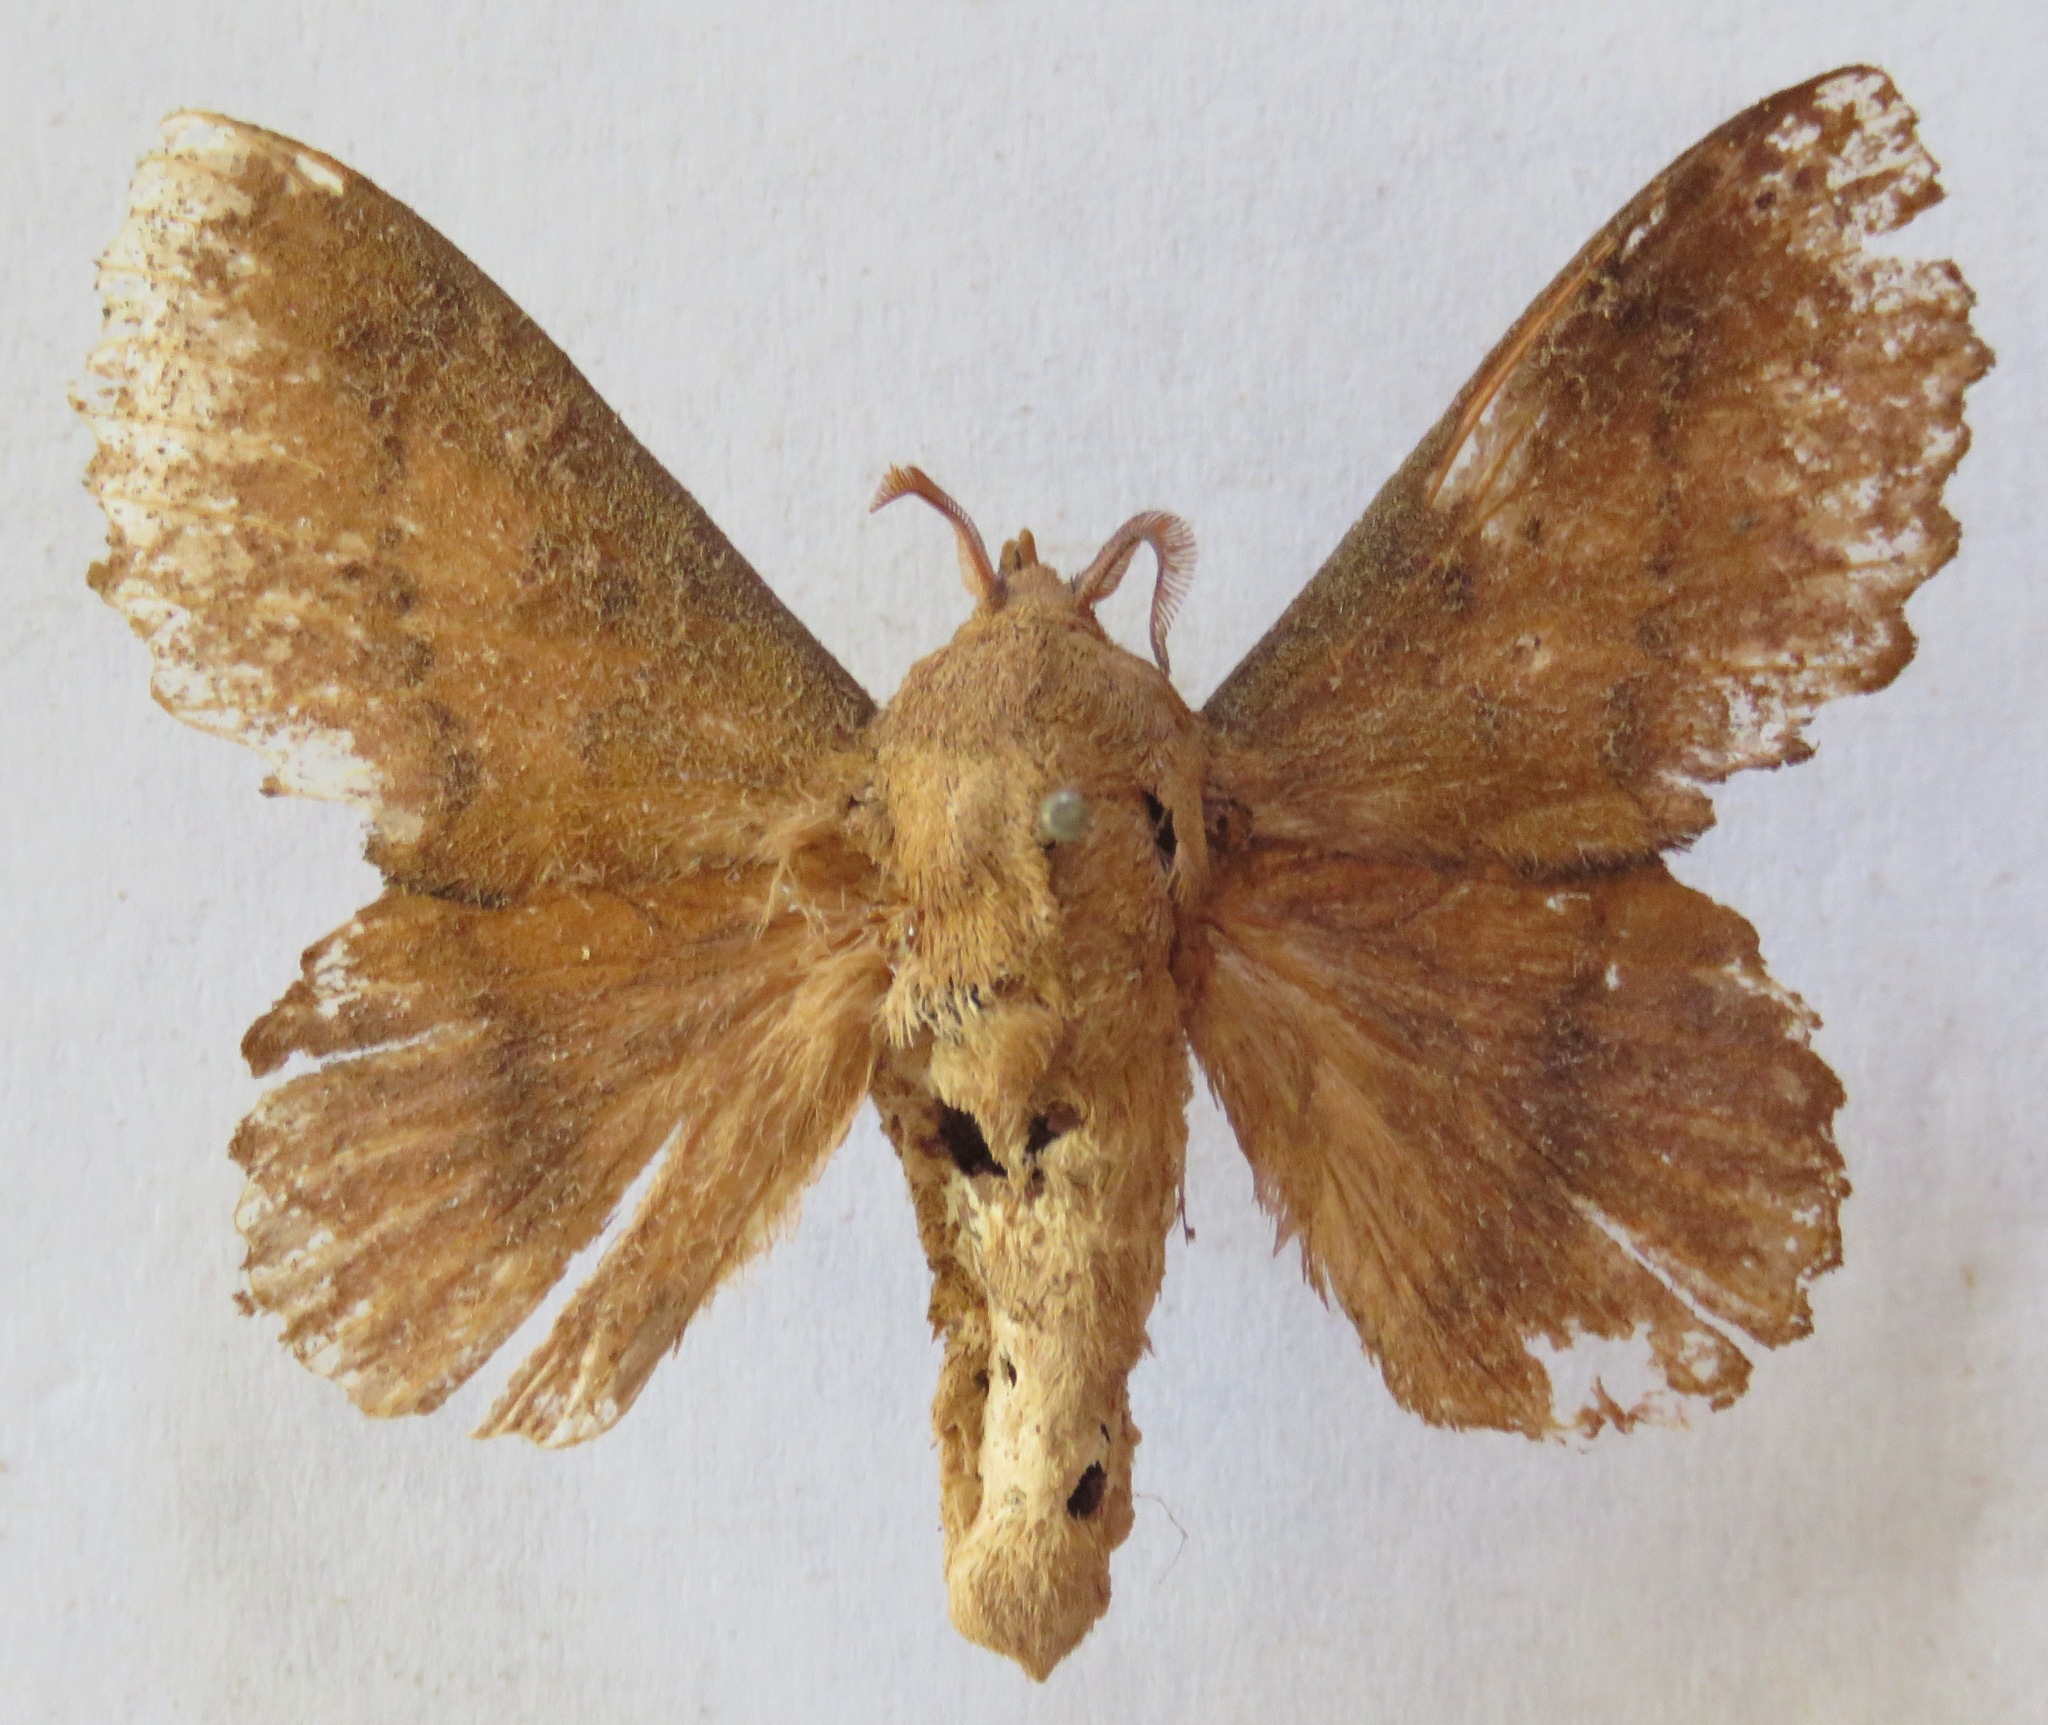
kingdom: Animalia
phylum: Arthropoda
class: Insecta
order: Lepidoptera
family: Lasiocampidae
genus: Gastropacha
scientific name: Gastropacha quercifolia
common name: Lappet
